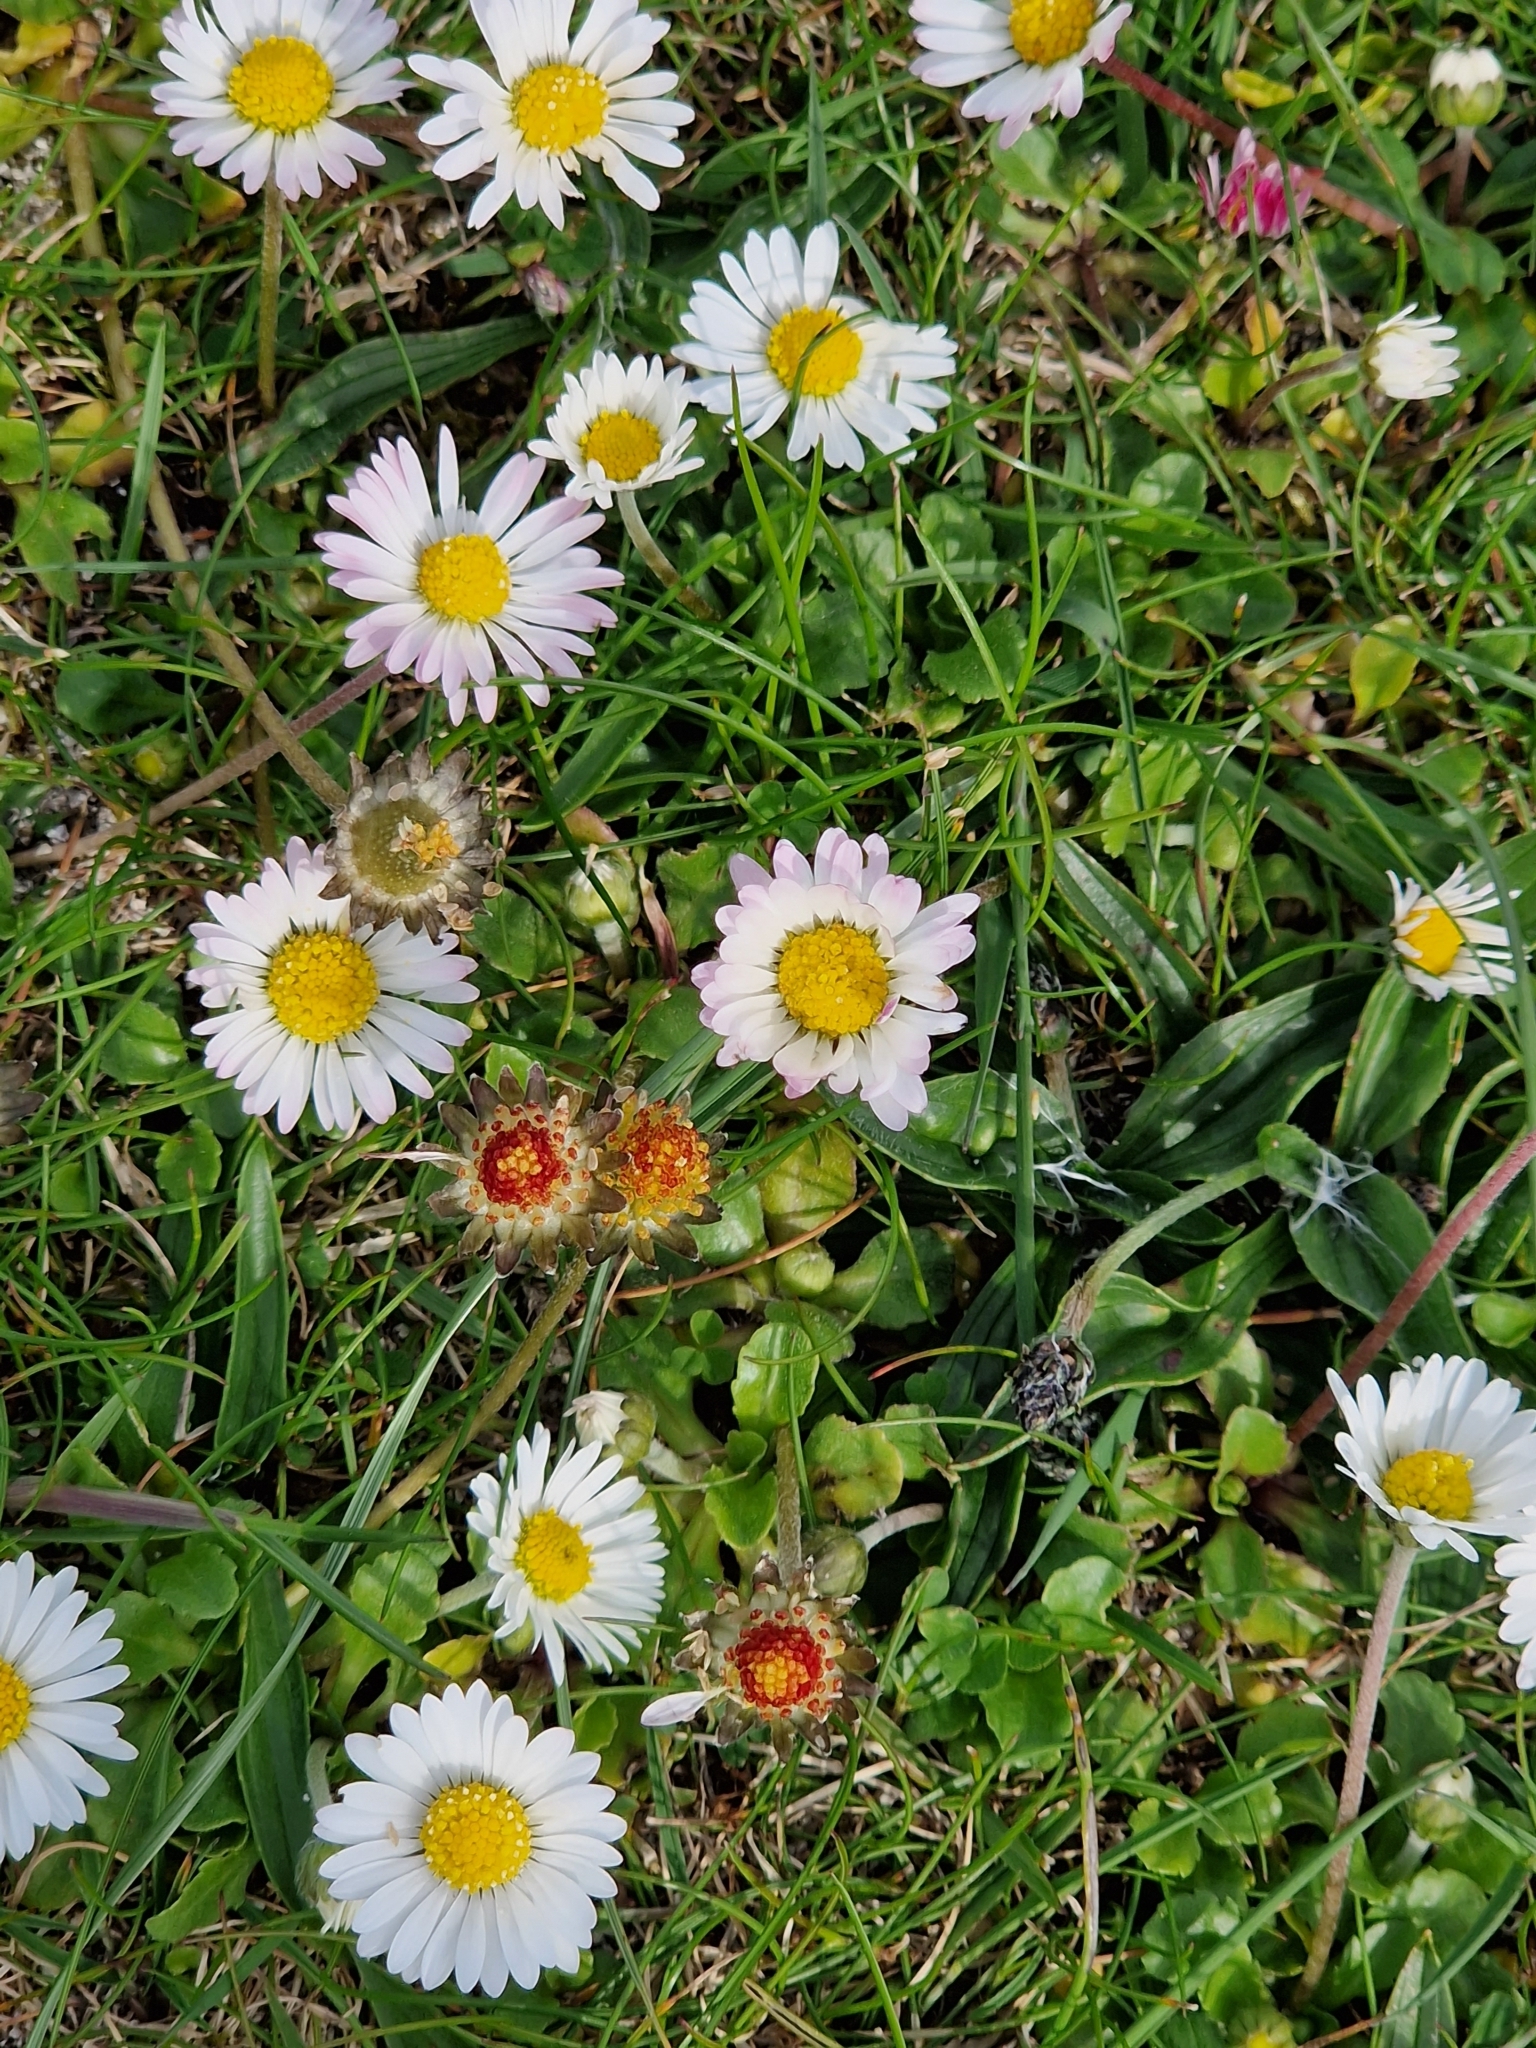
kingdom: Plantae
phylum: Tracheophyta
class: Magnoliopsida
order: Asterales
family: Asteraceae
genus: Bellis
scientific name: Bellis perennis
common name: Lawndaisy
